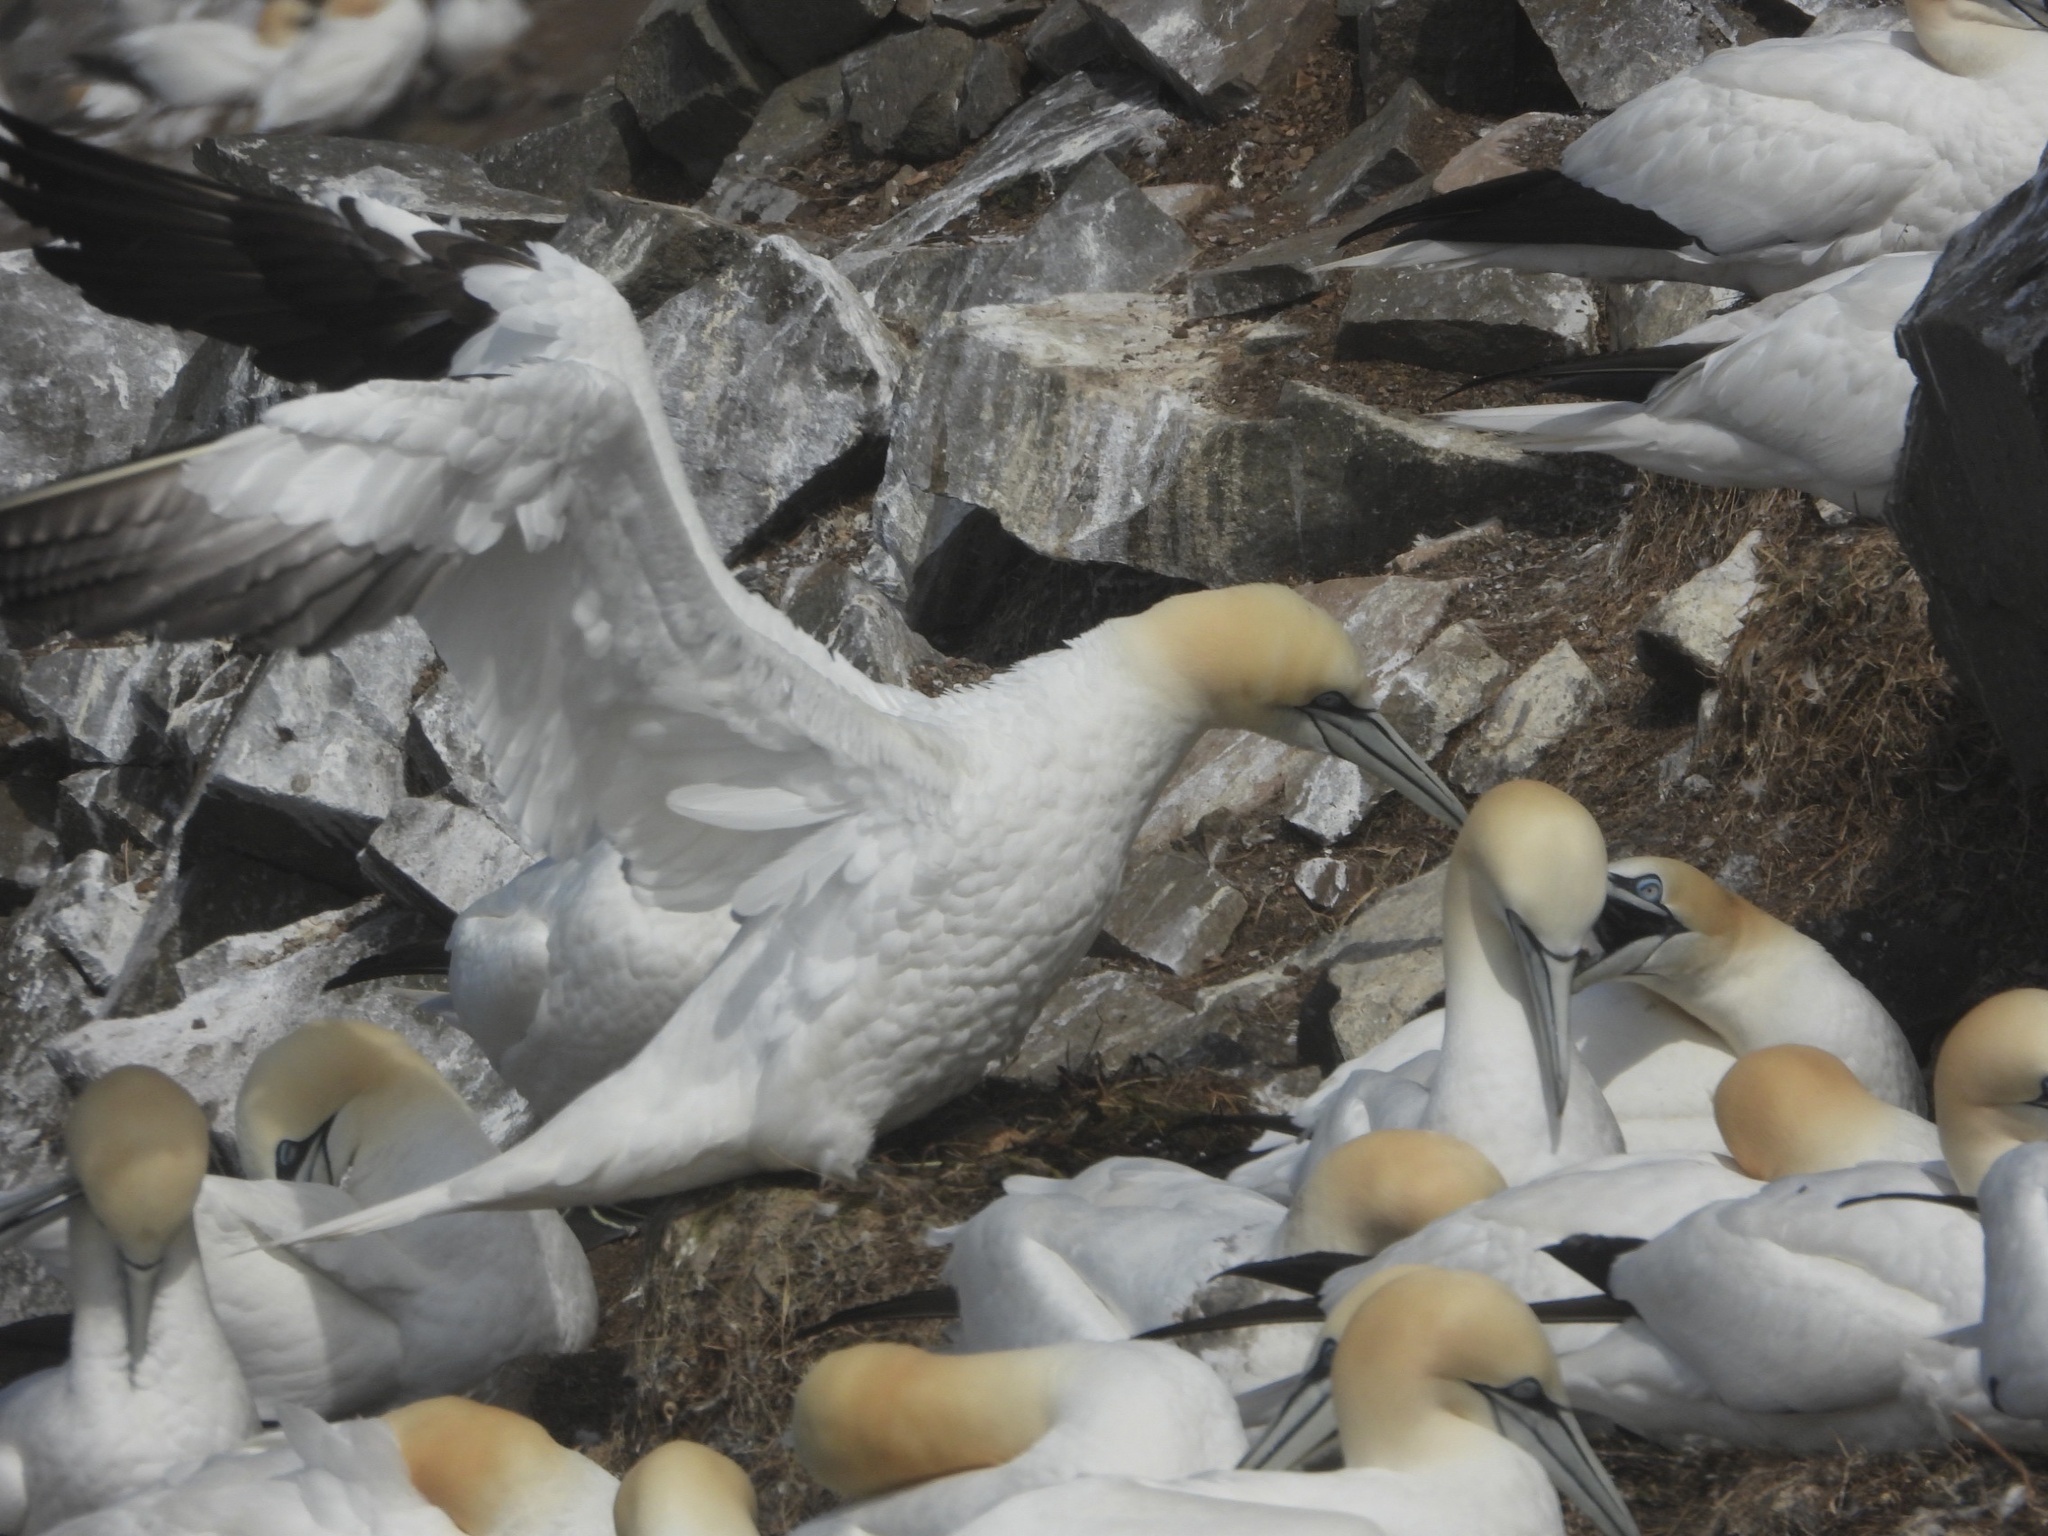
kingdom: Animalia
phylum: Chordata
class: Aves
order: Suliformes
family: Sulidae
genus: Morus
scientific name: Morus bassanus
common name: Northern gannet
